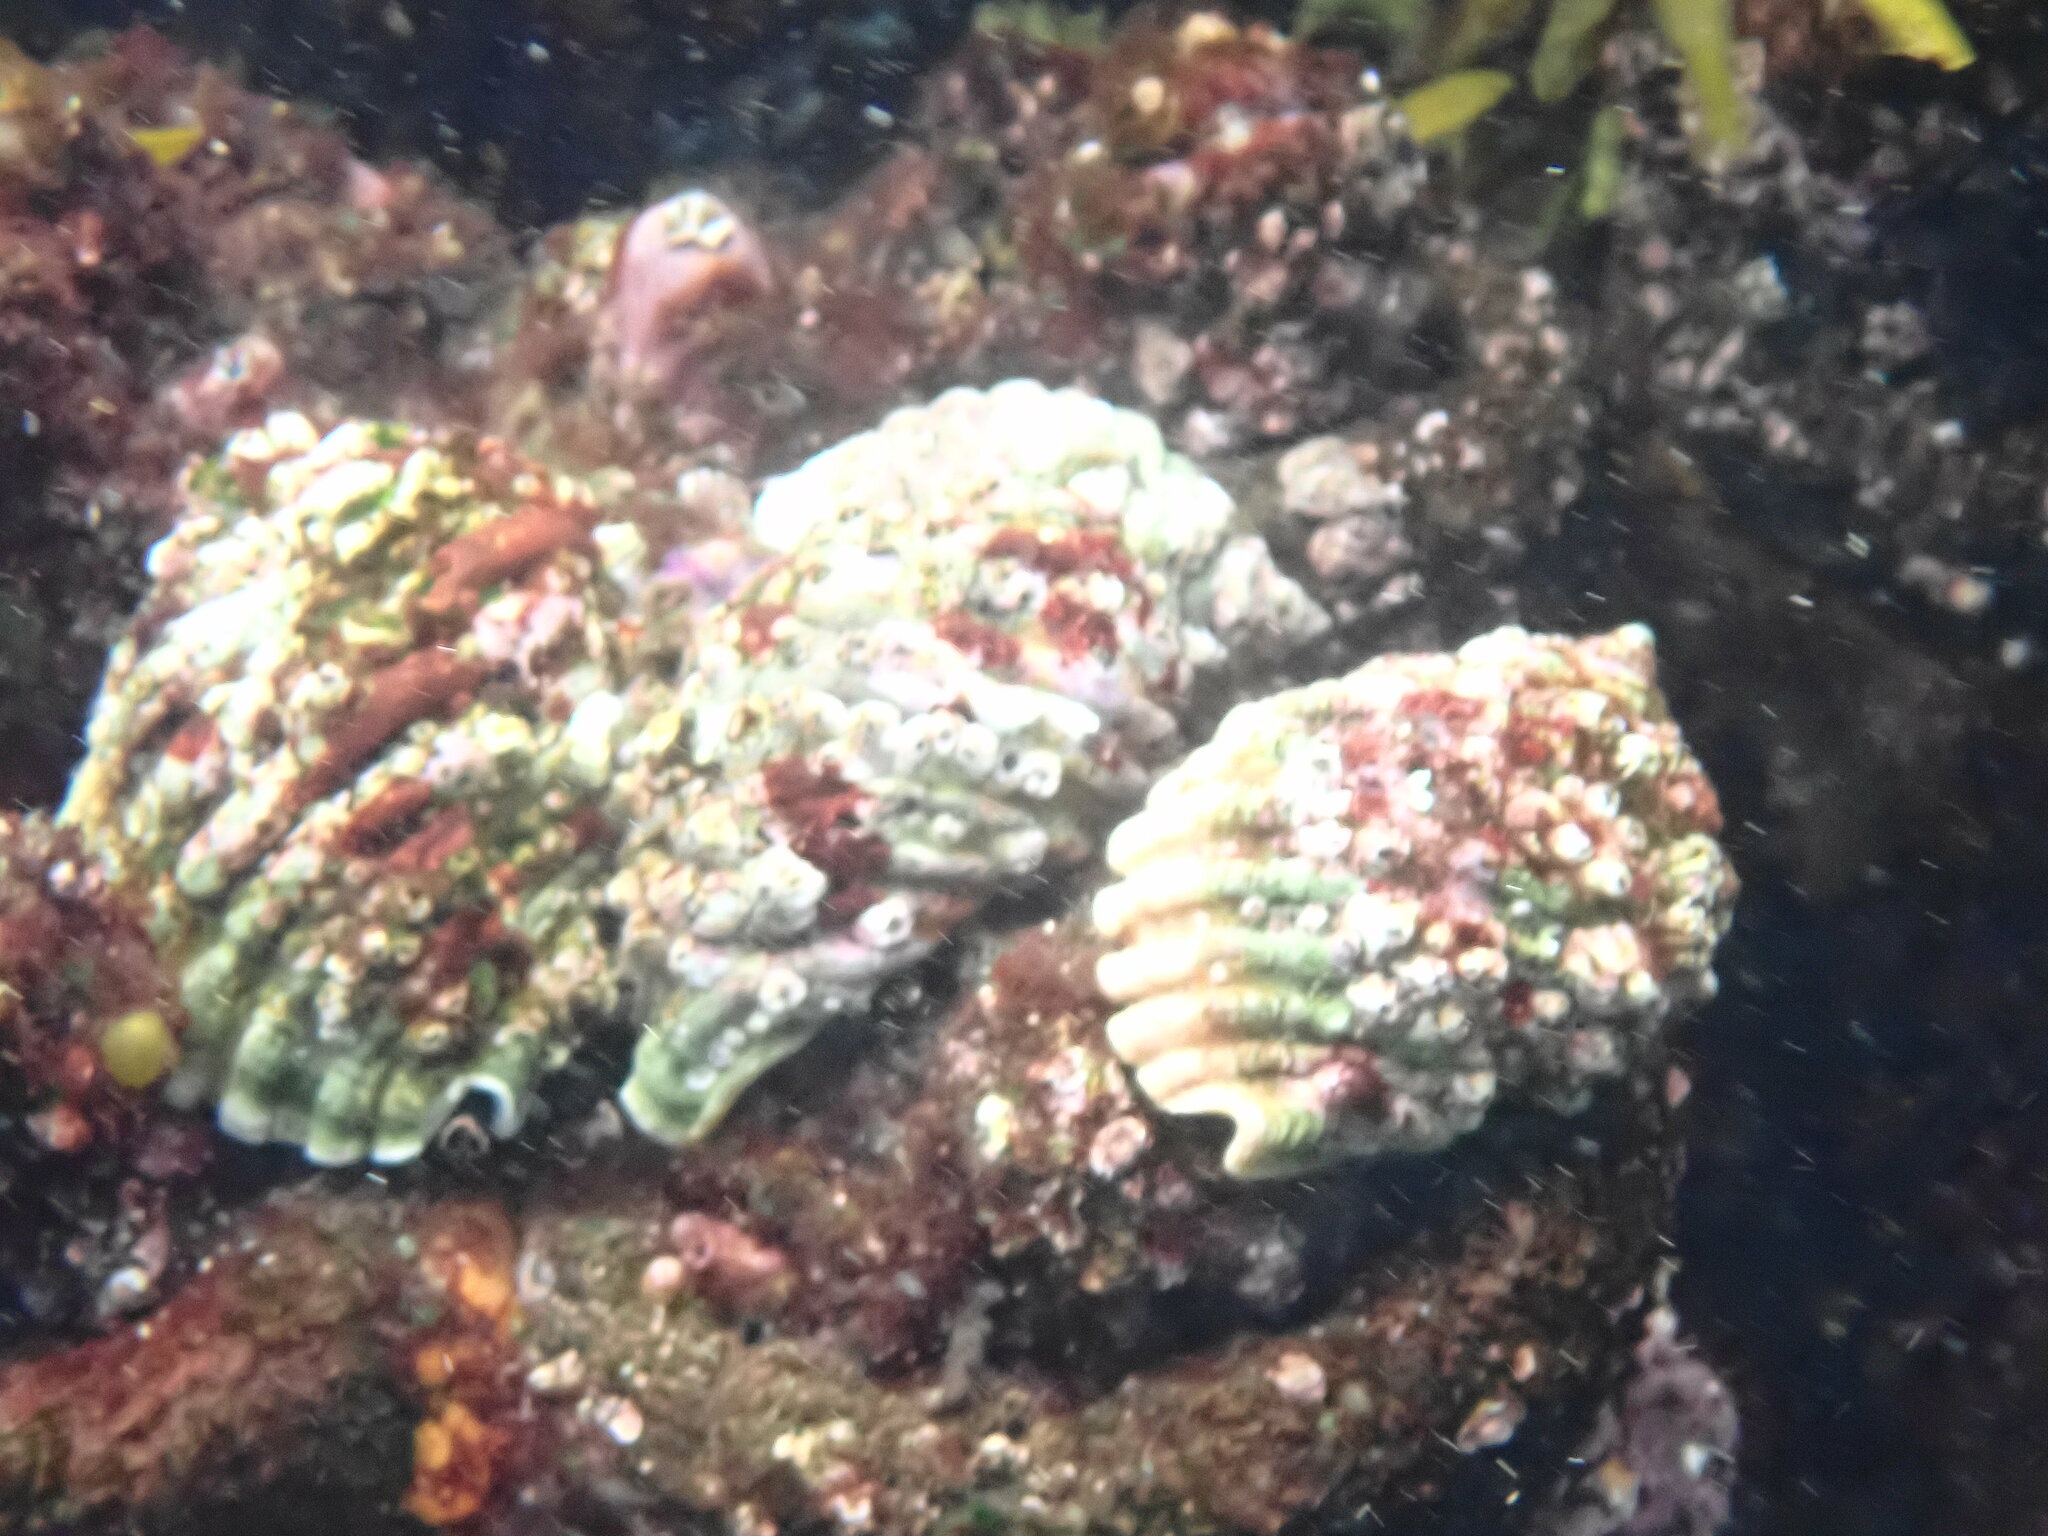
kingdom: Animalia
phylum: Mollusca
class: Gastropoda
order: Neogastropoda
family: Muricidae
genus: Dicathais
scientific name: Dicathais orbita
